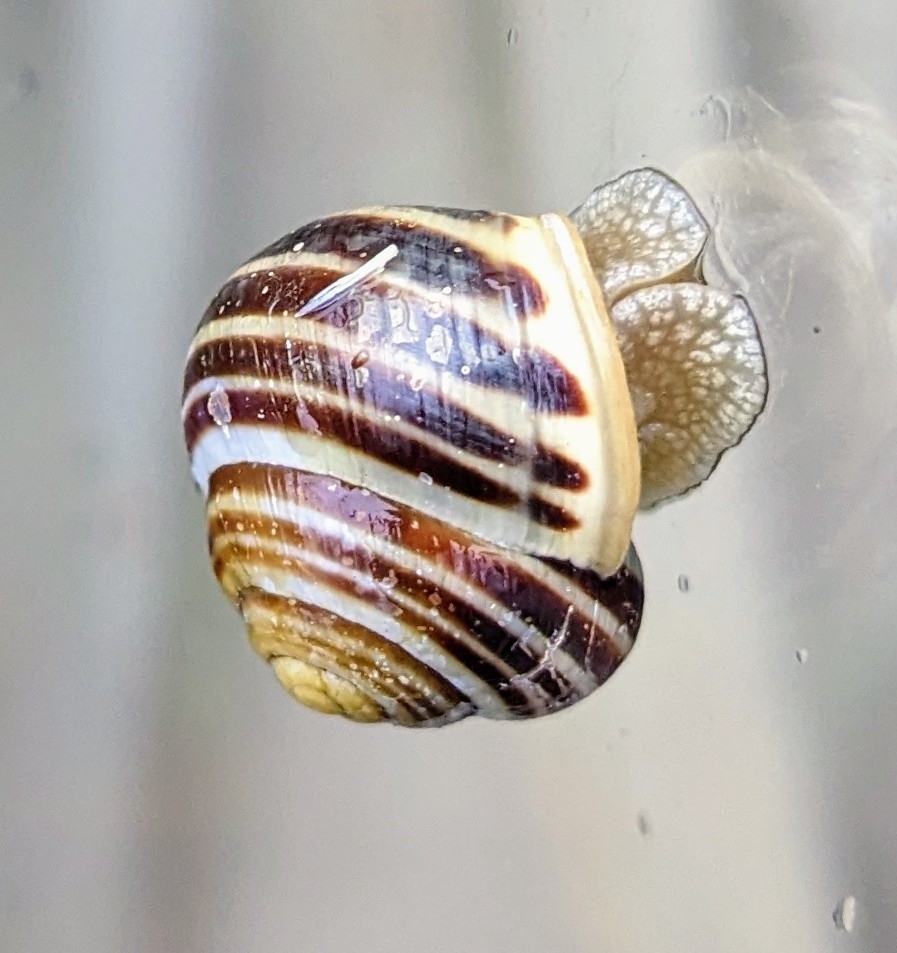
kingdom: Animalia
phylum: Mollusca
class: Gastropoda
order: Stylommatophora
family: Helicidae
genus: Cepaea
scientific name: Cepaea hortensis
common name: White-lip gardensnail
